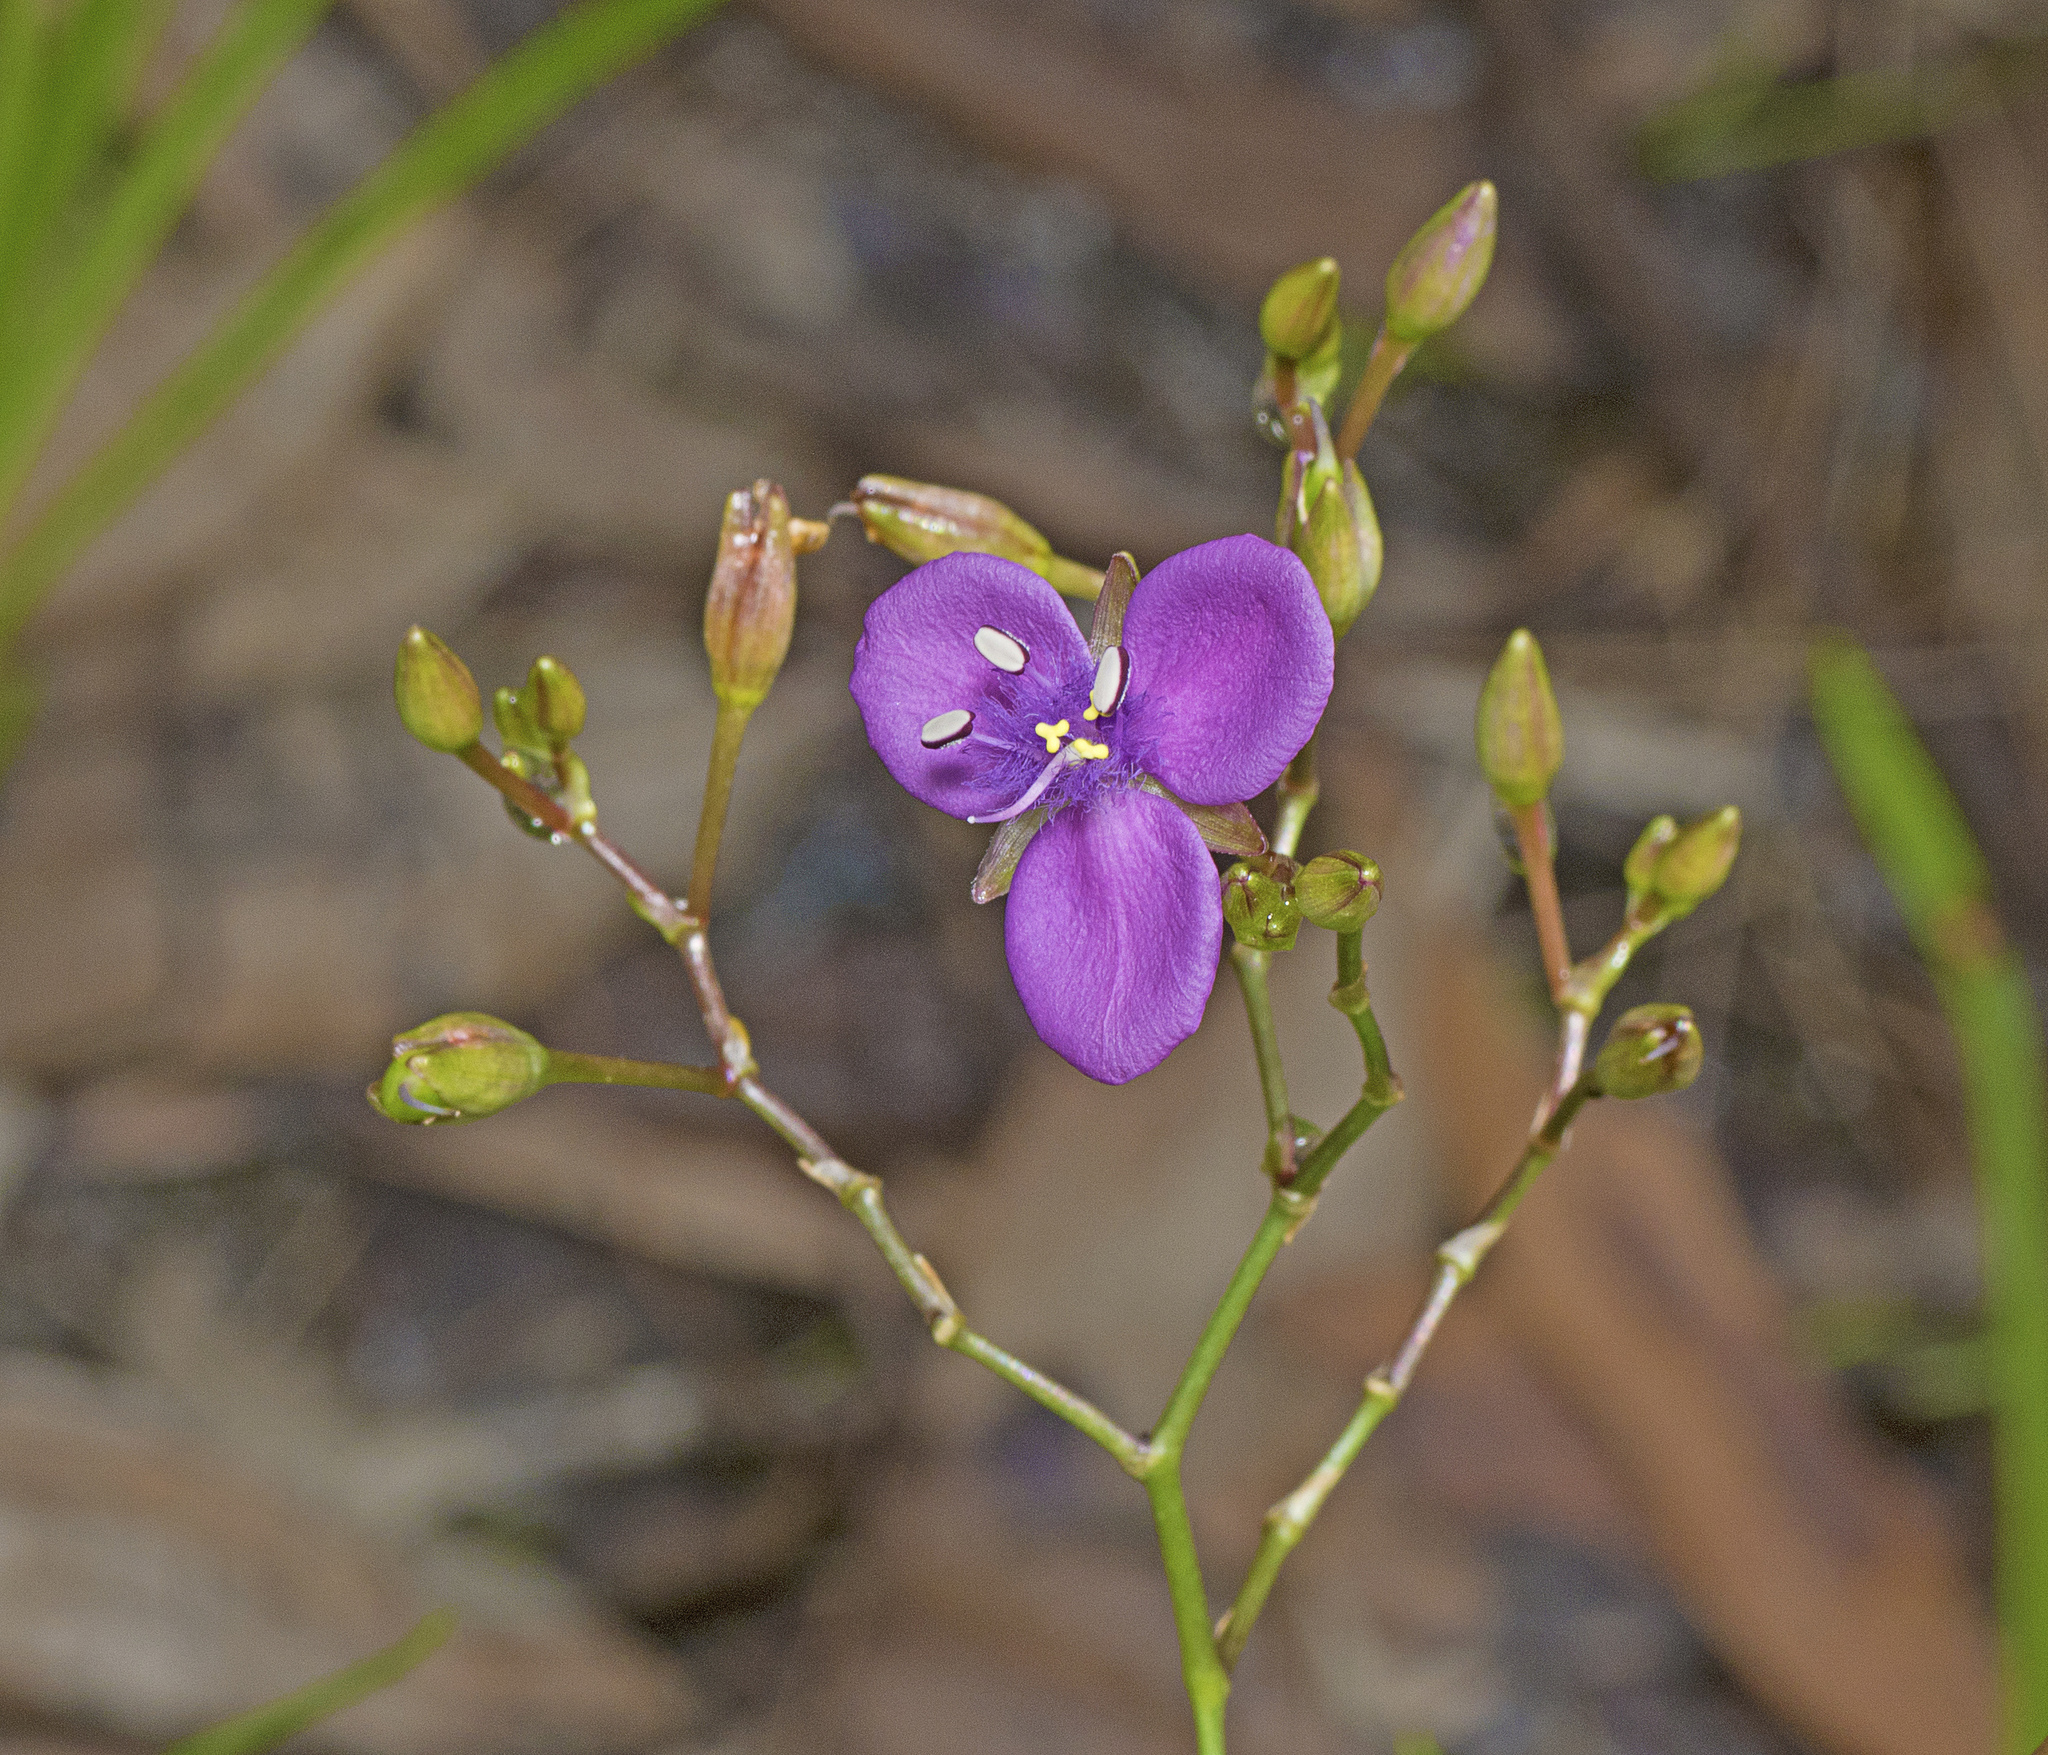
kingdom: Plantae
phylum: Tracheophyta
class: Liliopsida
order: Commelinales
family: Commelinaceae
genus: Murdannia
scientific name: Murdannia graminea
